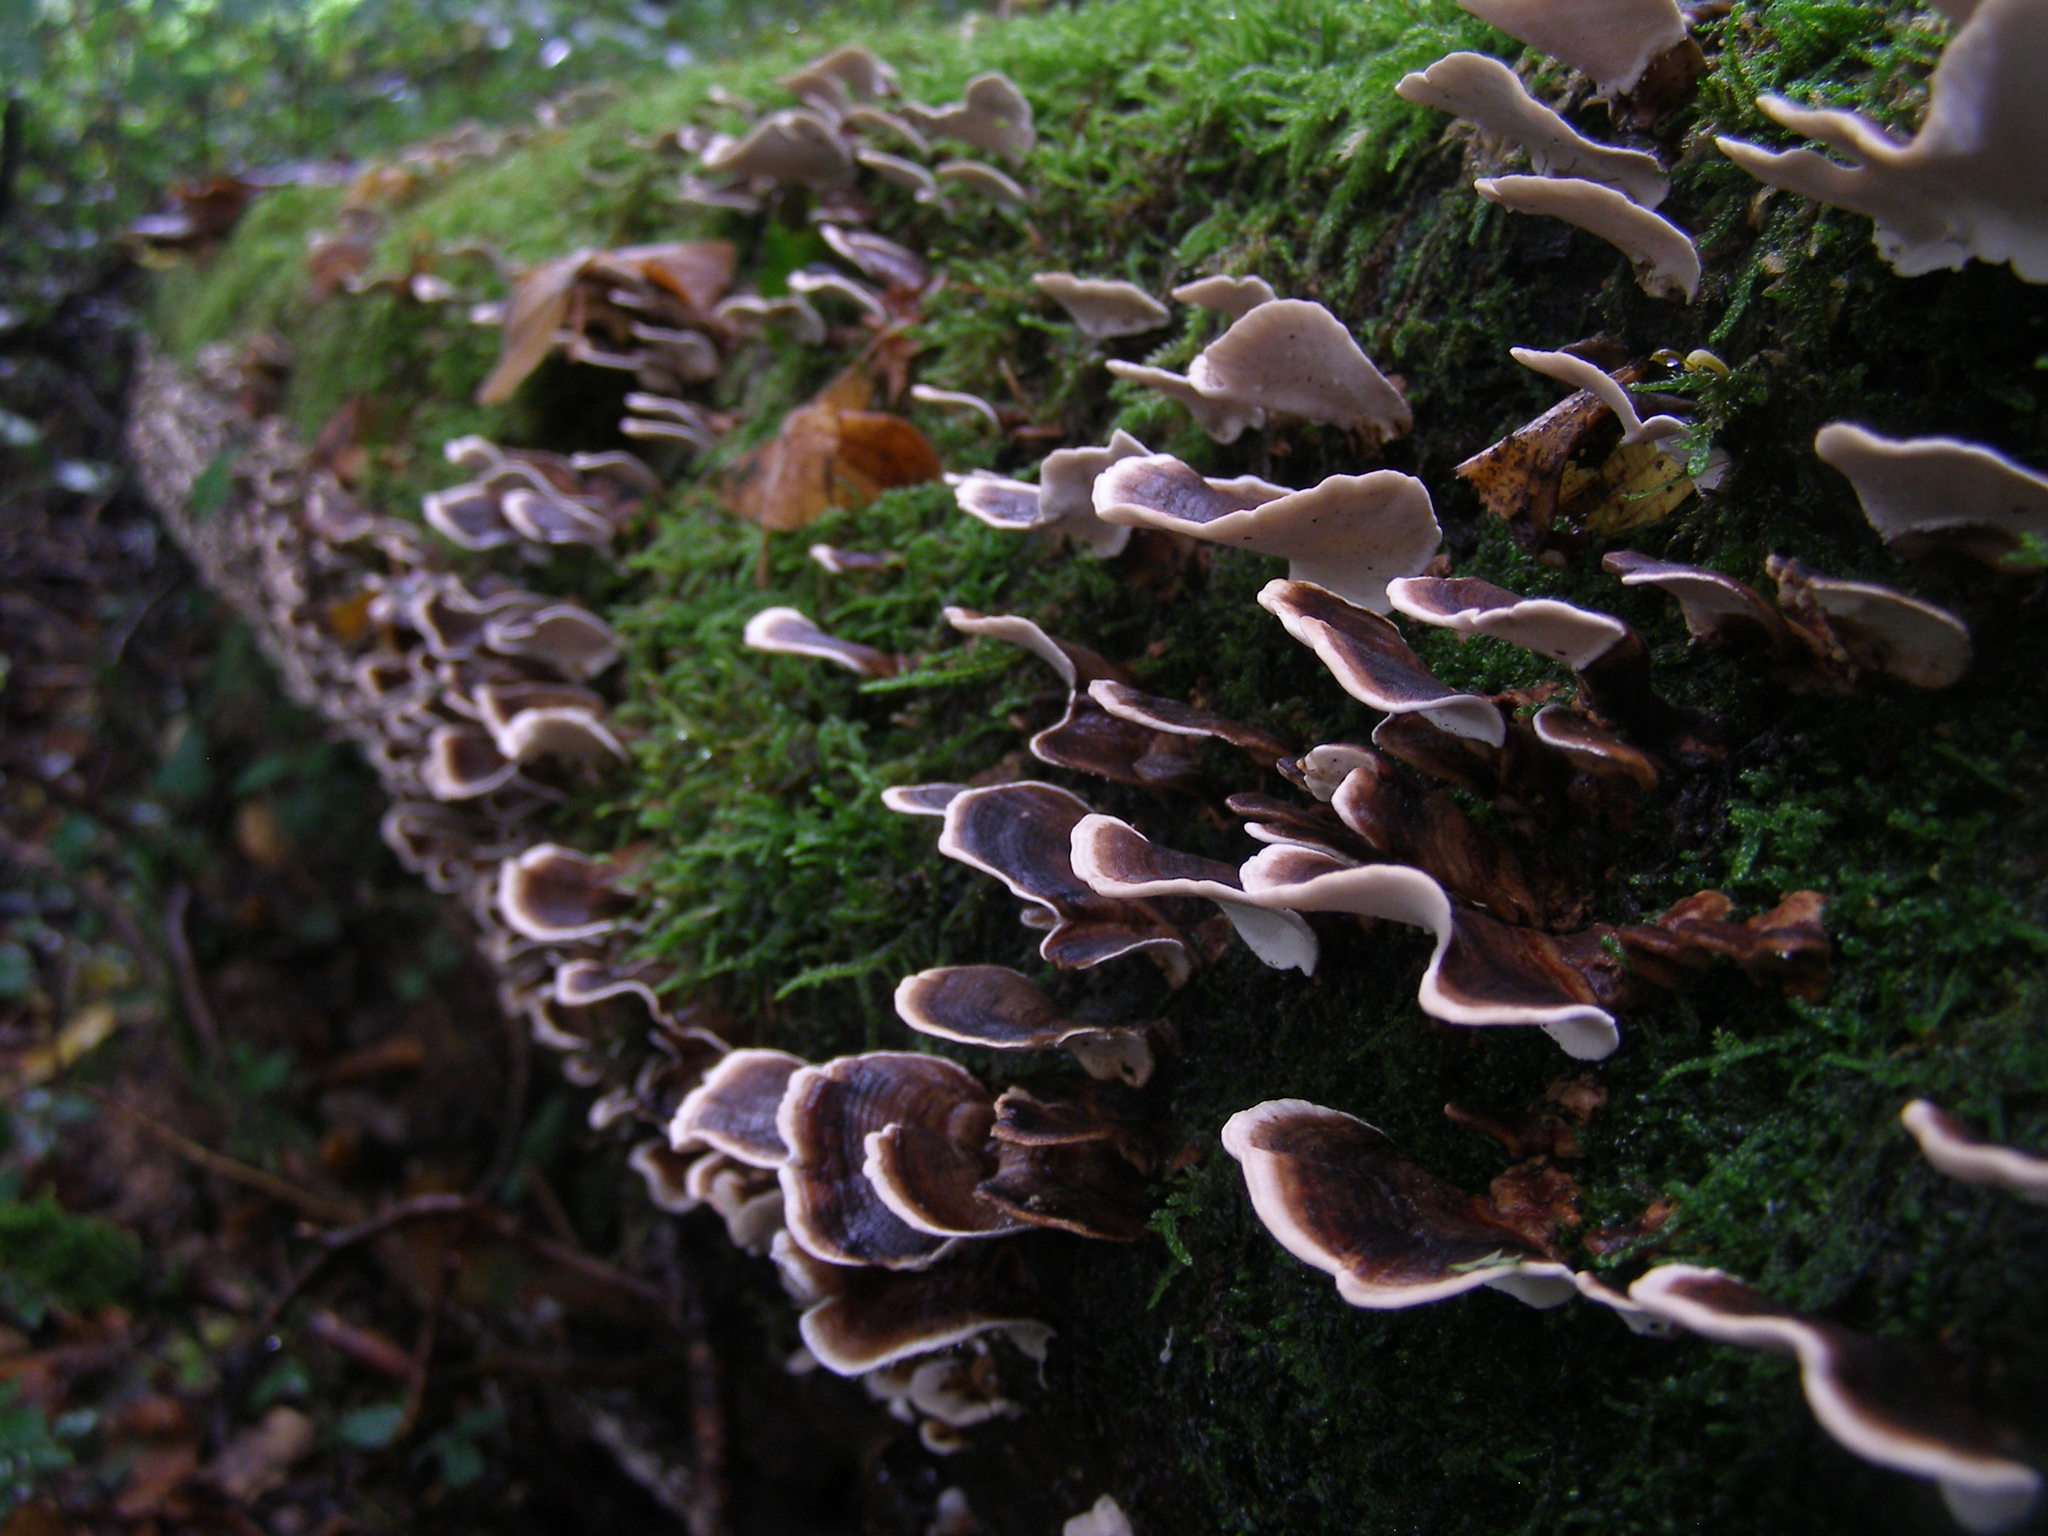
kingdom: Fungi
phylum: Basidiomycota
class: Agaricomycetes
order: Polyporales
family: Polyporaceae
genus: Trametes
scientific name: Trametes versicolor
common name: Turkeytail
